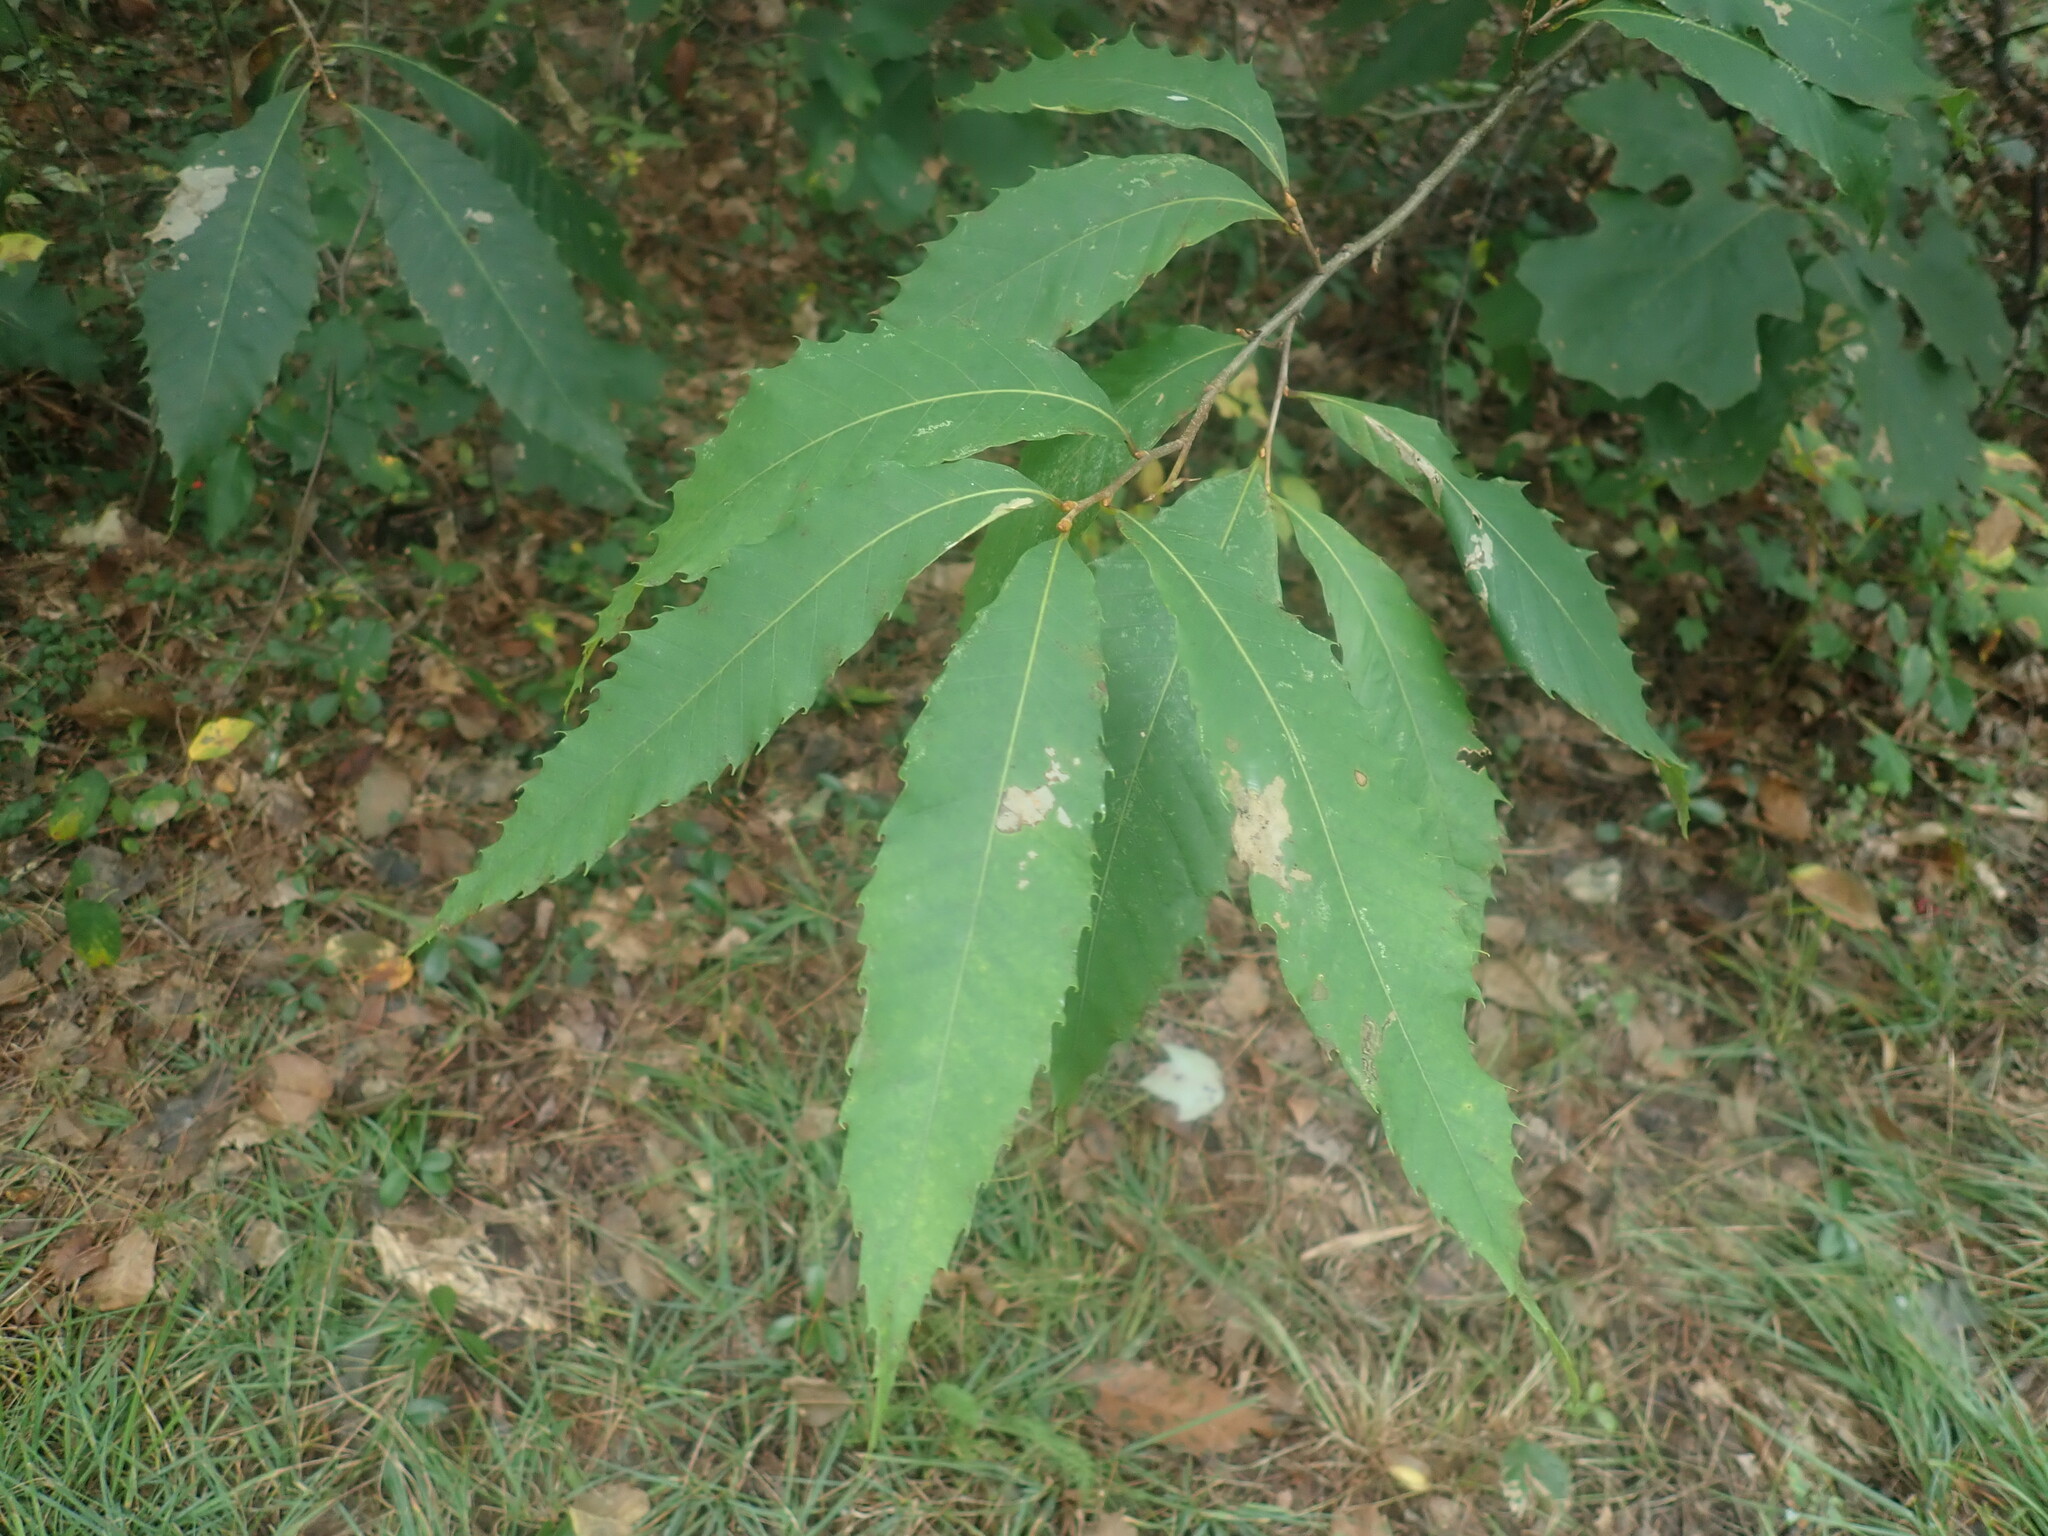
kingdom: Plantae
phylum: Tracheophyta
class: Magnoliopsida
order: Fagales
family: Fagaceae
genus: Castanea
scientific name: Castanea dentata
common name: American chestnut
